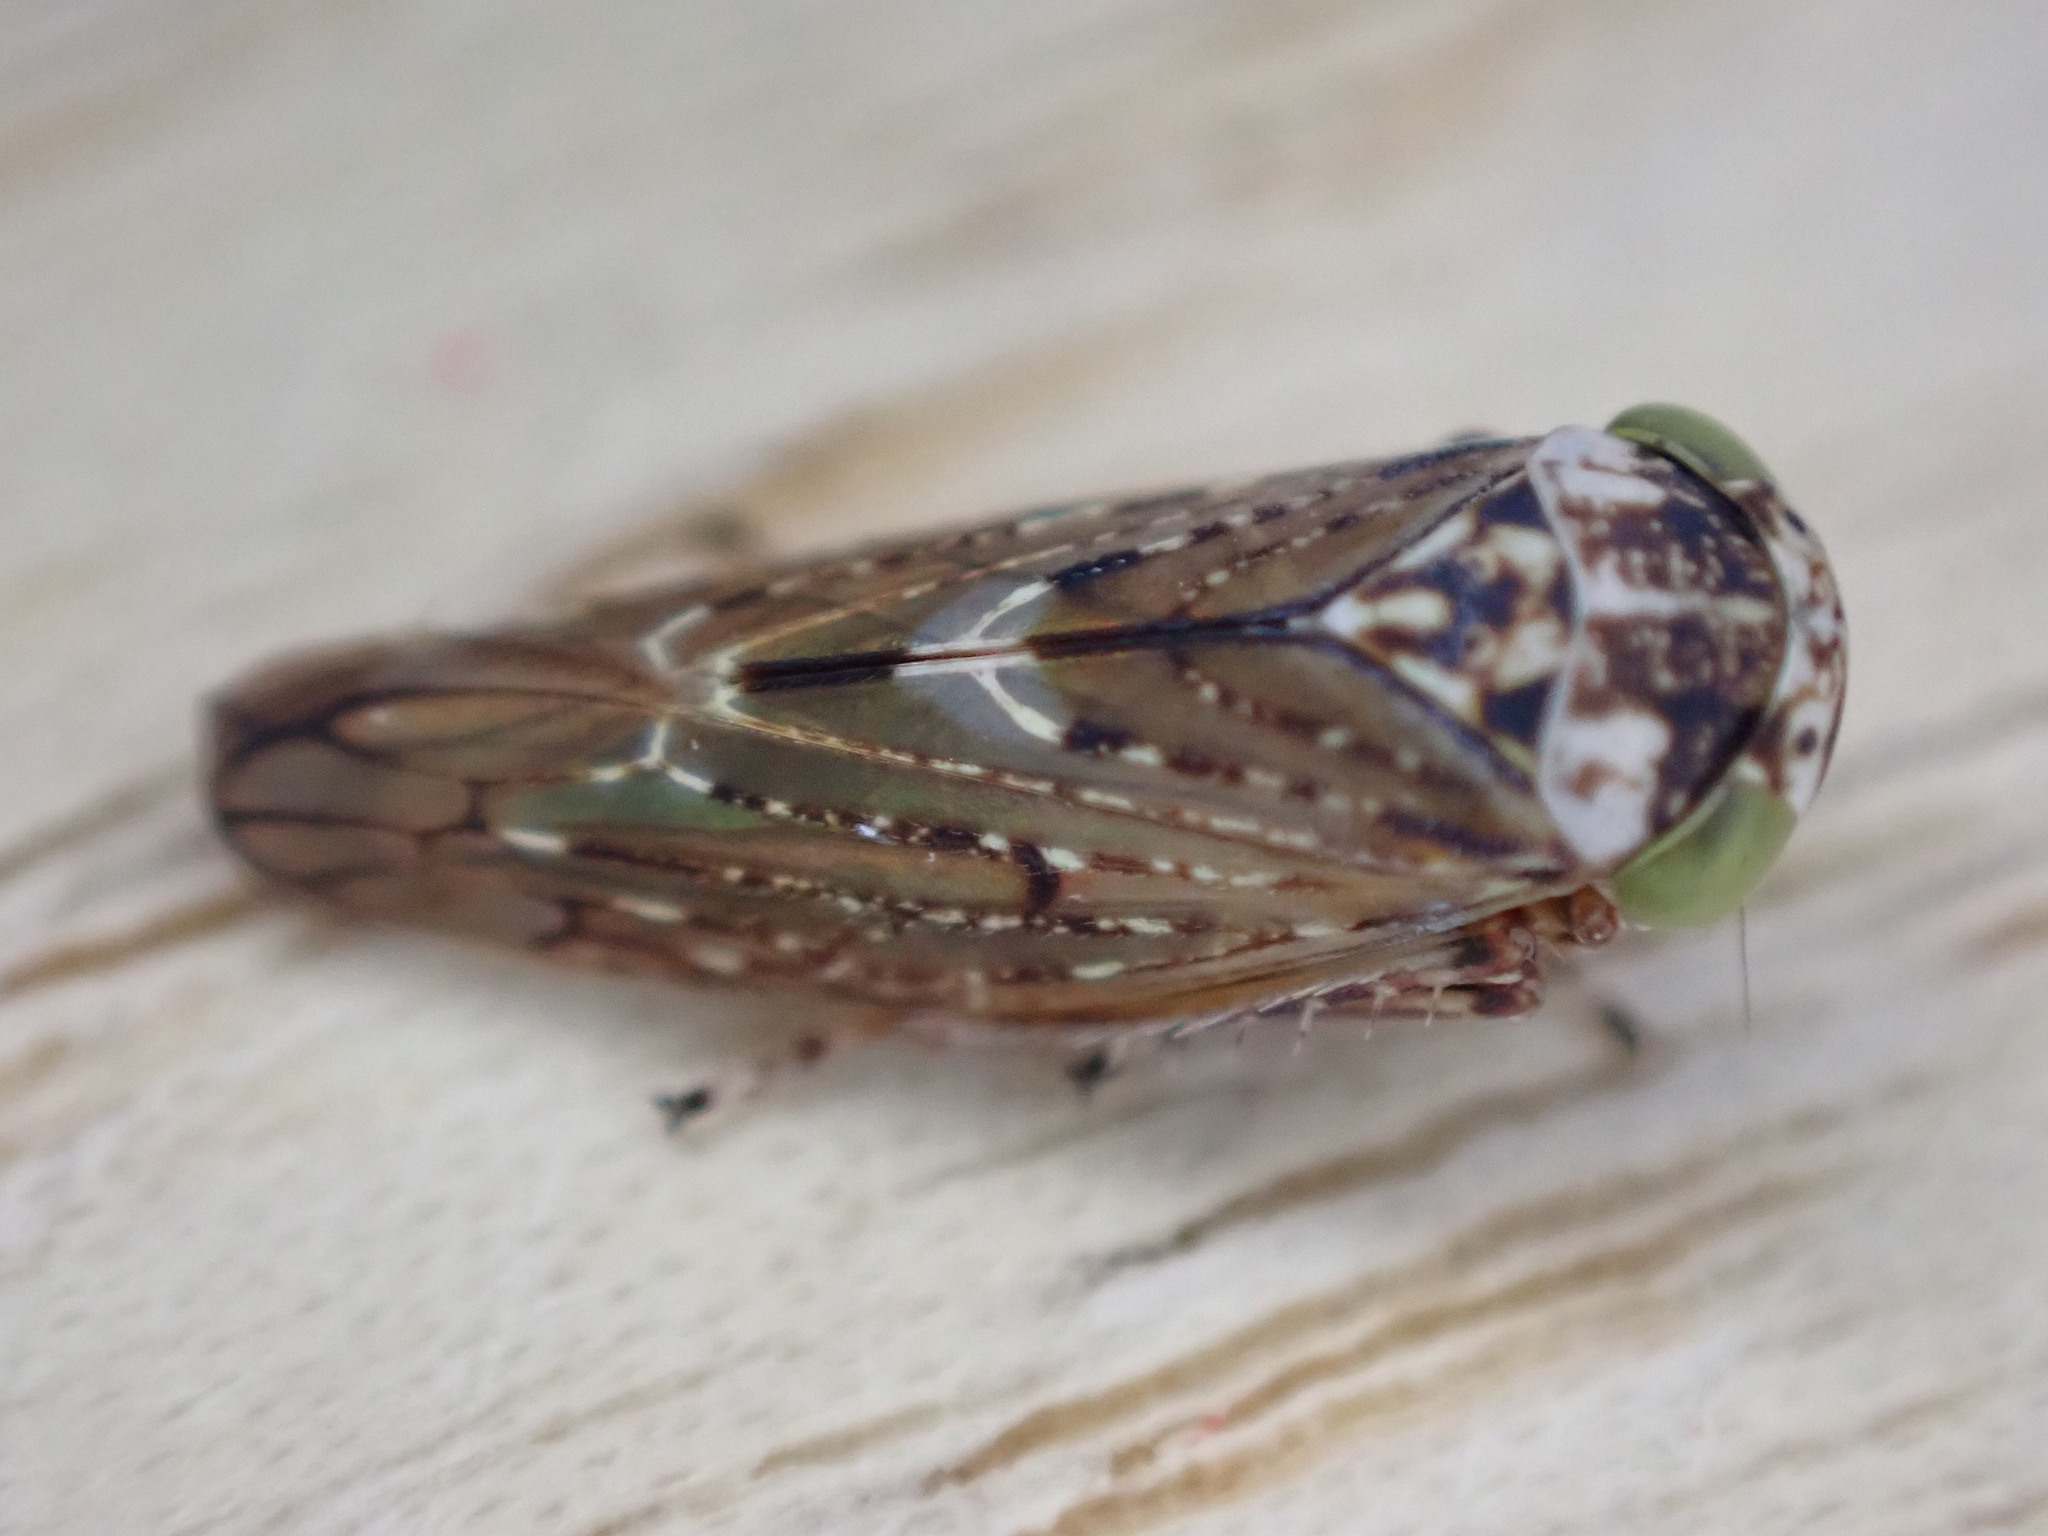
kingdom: Animalia
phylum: Arthropoda
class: Insecta
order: Hemiptera
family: Cicadellidae
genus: Acericerus
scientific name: Acericerus heydenii
